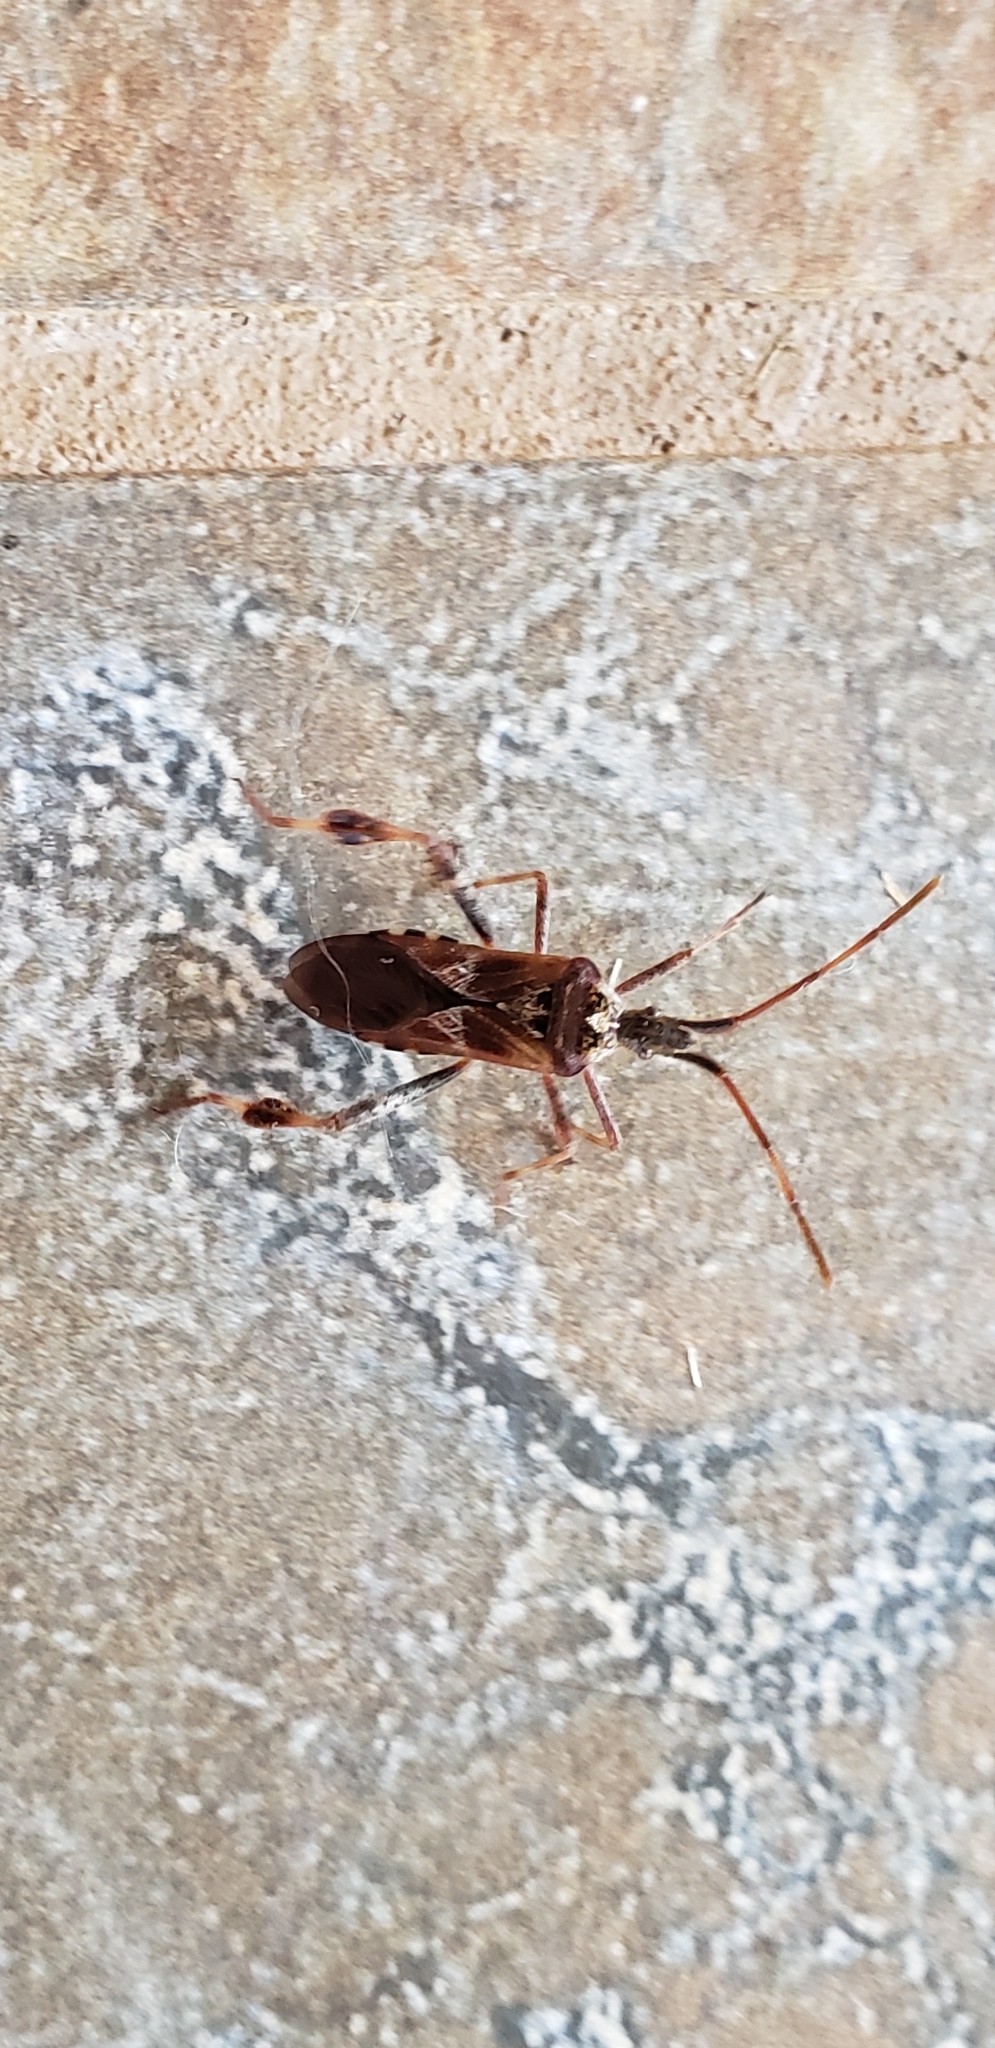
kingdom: Animalia
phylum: Arthropoda
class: Insecta
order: Hemiptera
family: Coreidae
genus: Leptoglossus
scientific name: Leptoglossus occidentalis
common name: Western conifer-seed bug
